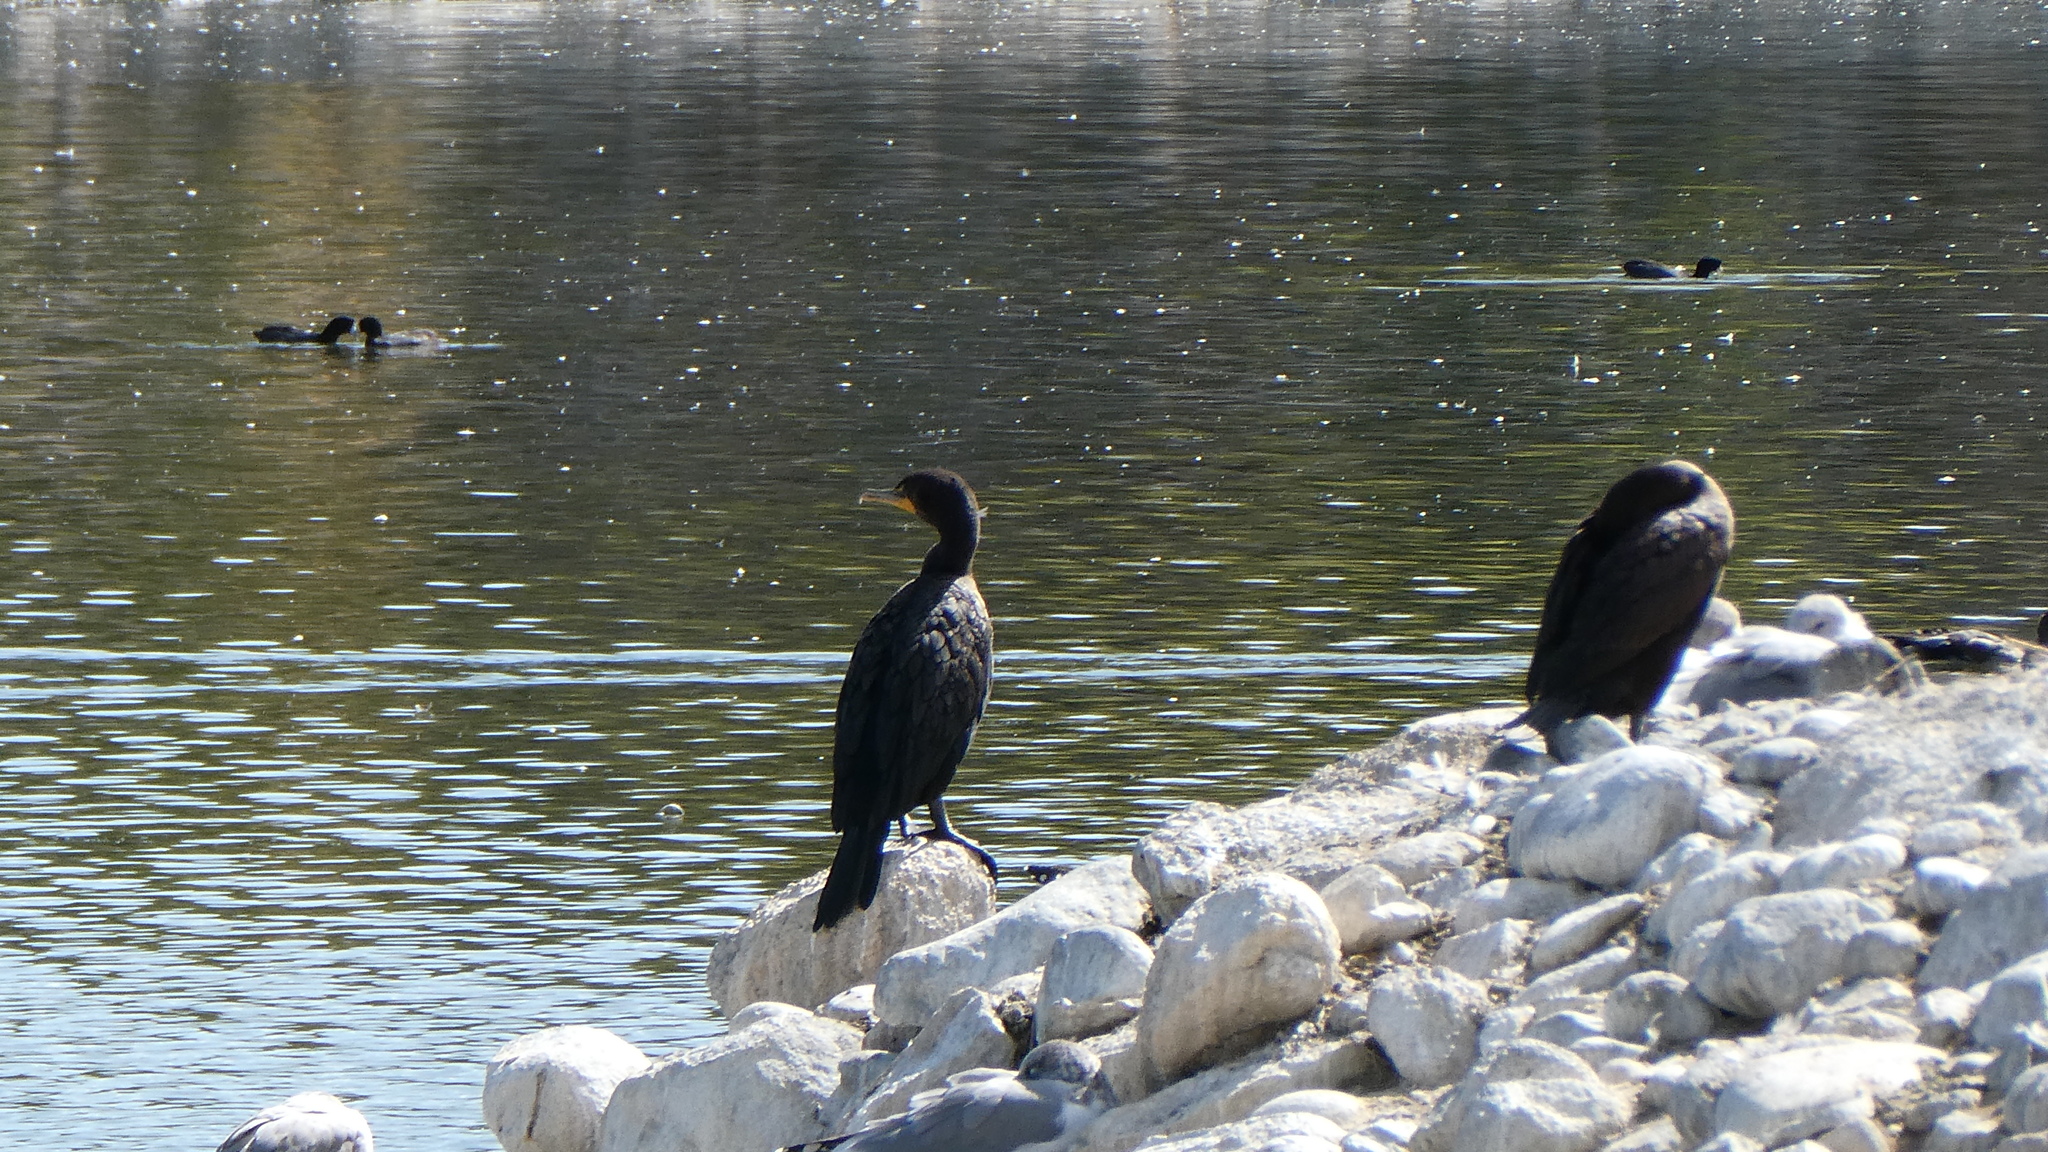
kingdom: Animalia
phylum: Chordata
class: Aves
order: Suliformes
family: Phalacrocoracidae
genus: Phalacrocorax
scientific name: Phalacrocorax auritus
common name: Double-crested cormorant
